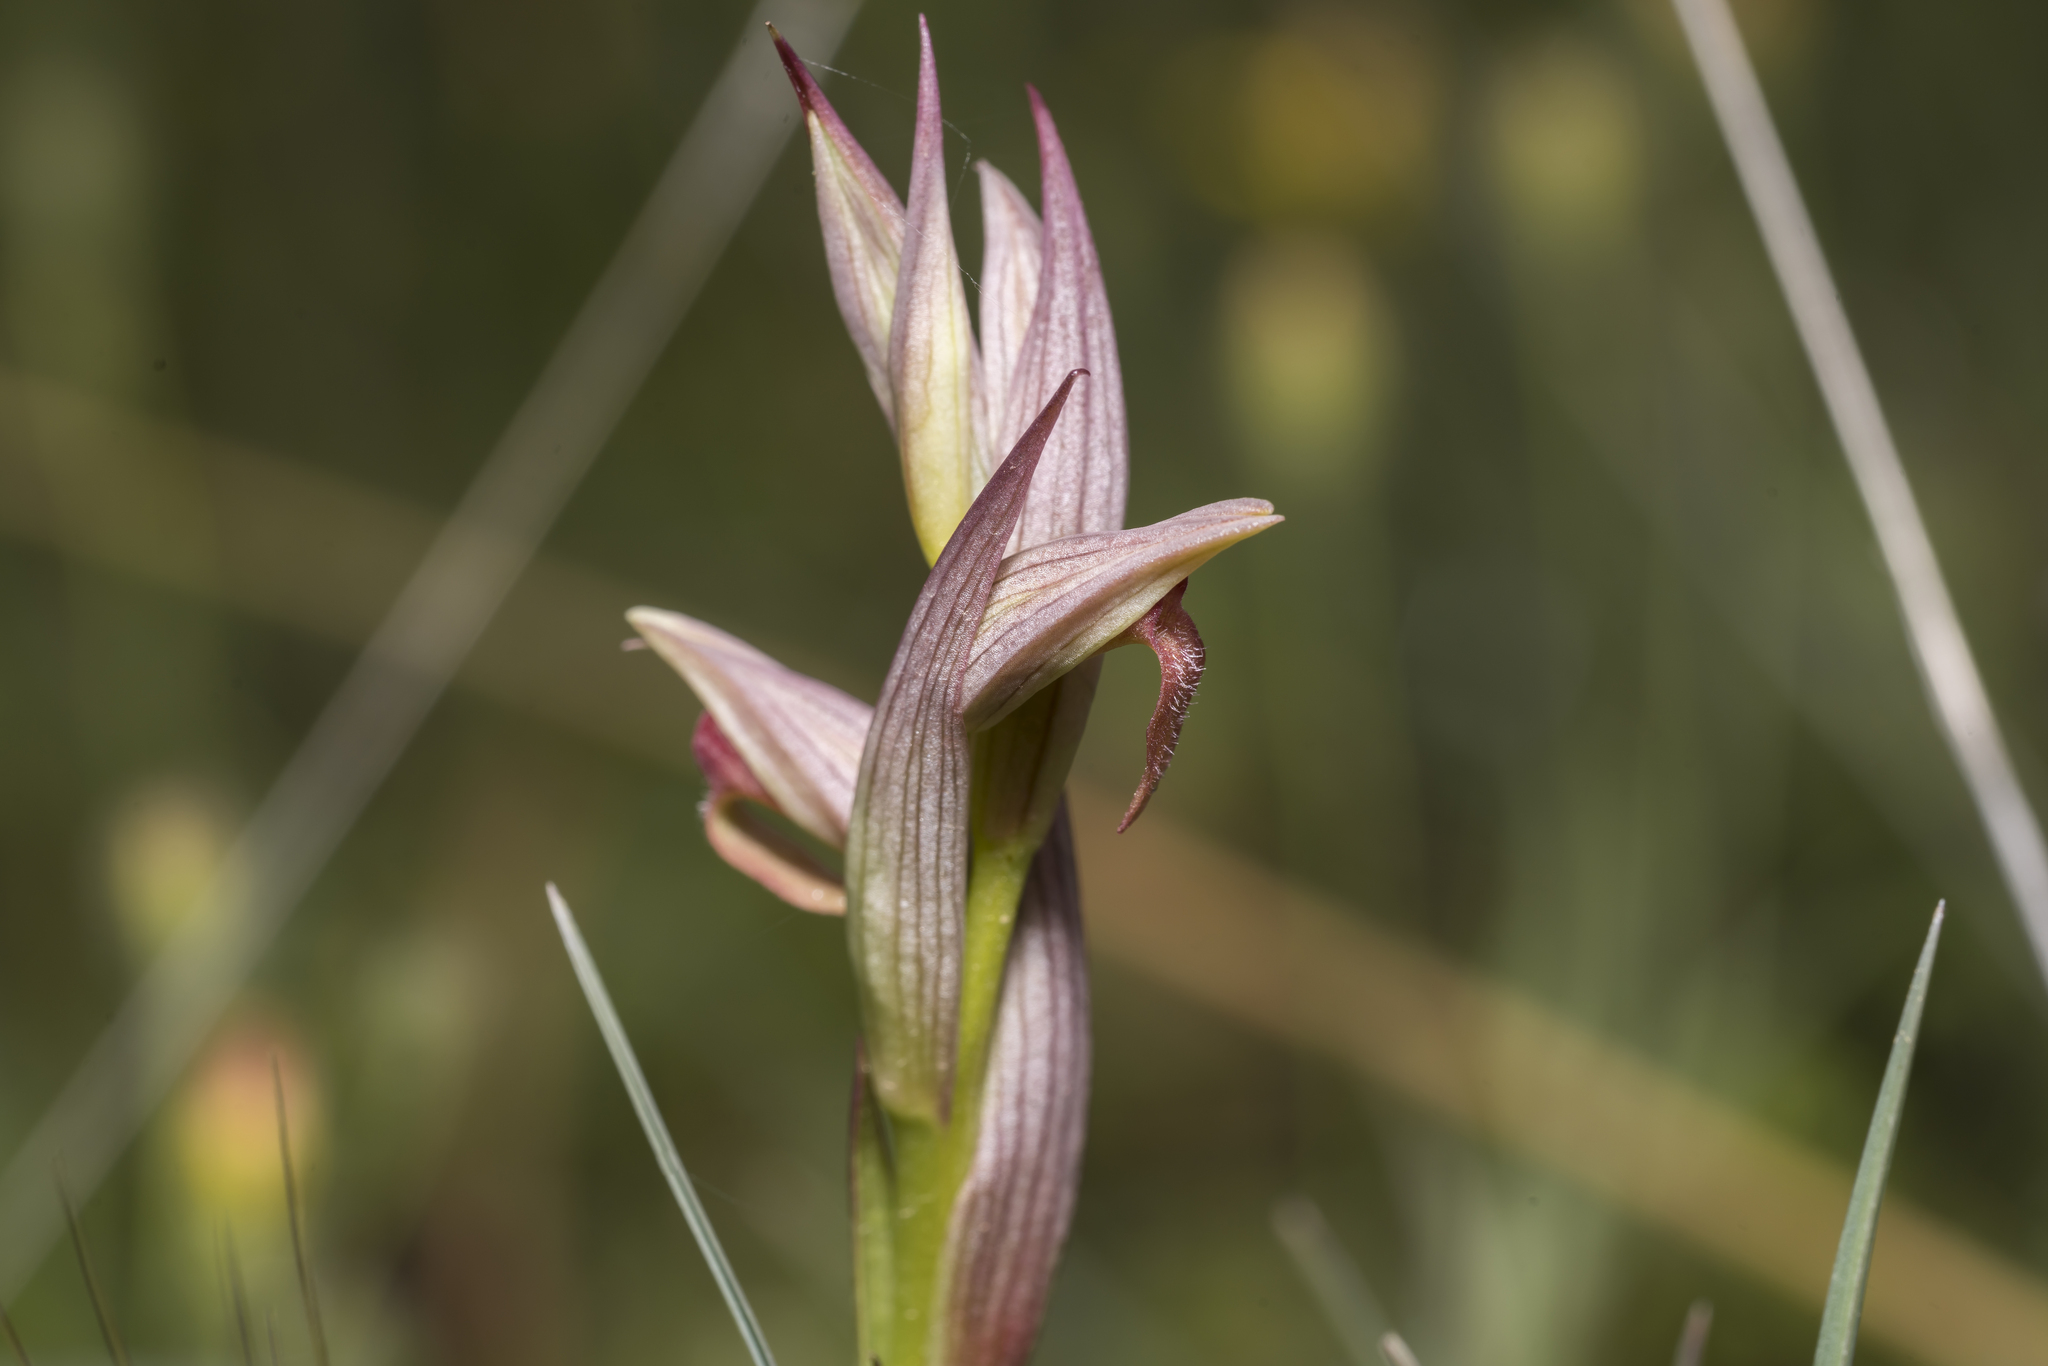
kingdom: Plantae
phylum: Tracheophyta
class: Liliopsida
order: Asparagales
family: Orchidaceae
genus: Serapias
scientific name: Serapias parviflora
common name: Small-flowered tongue-orchid
